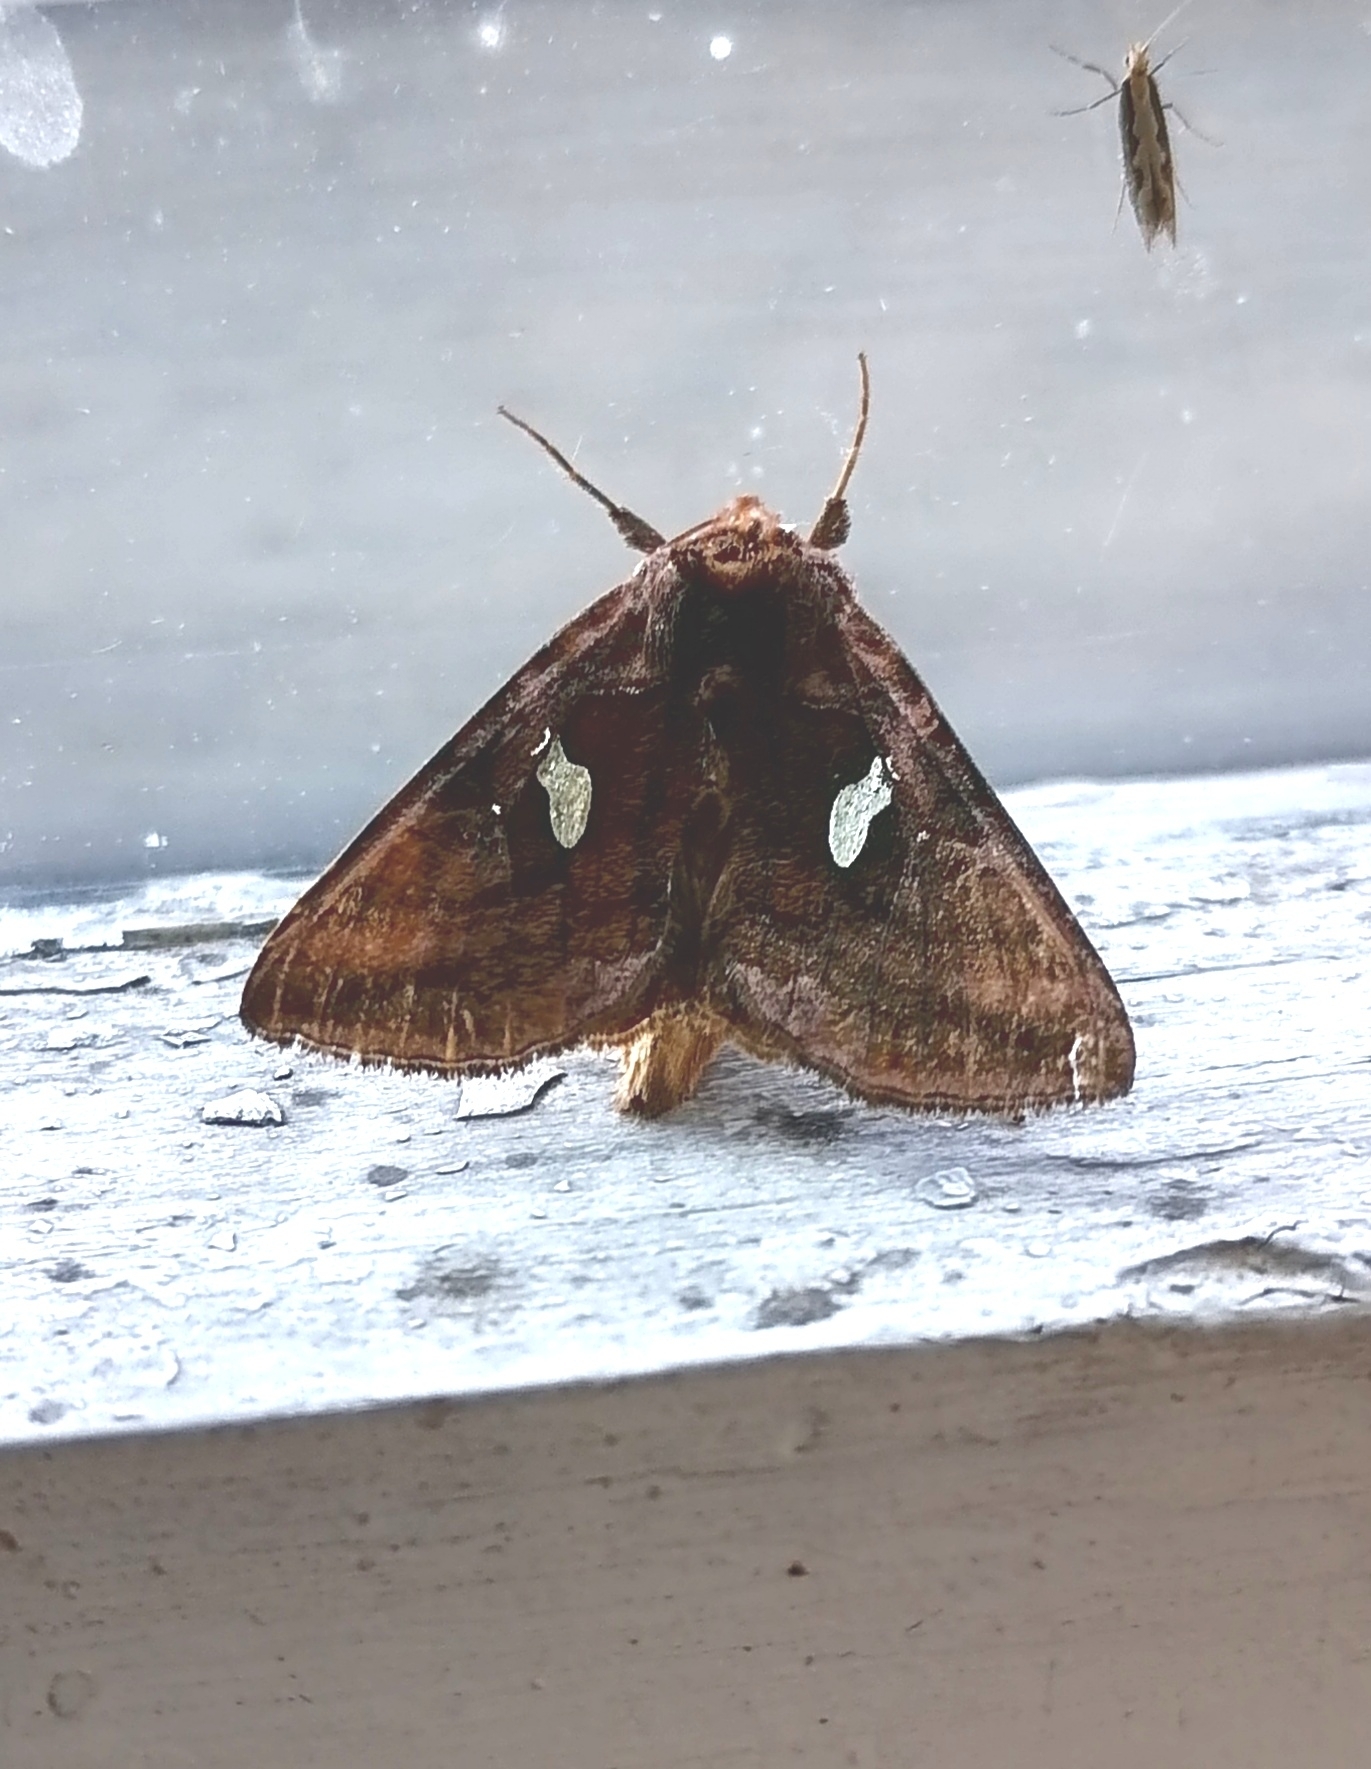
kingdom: Animalia
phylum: Arthropoda
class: Insecta
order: Lepidoptera
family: Noctuidae
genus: Autographa
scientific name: Autographa bractea
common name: Gold spangle
